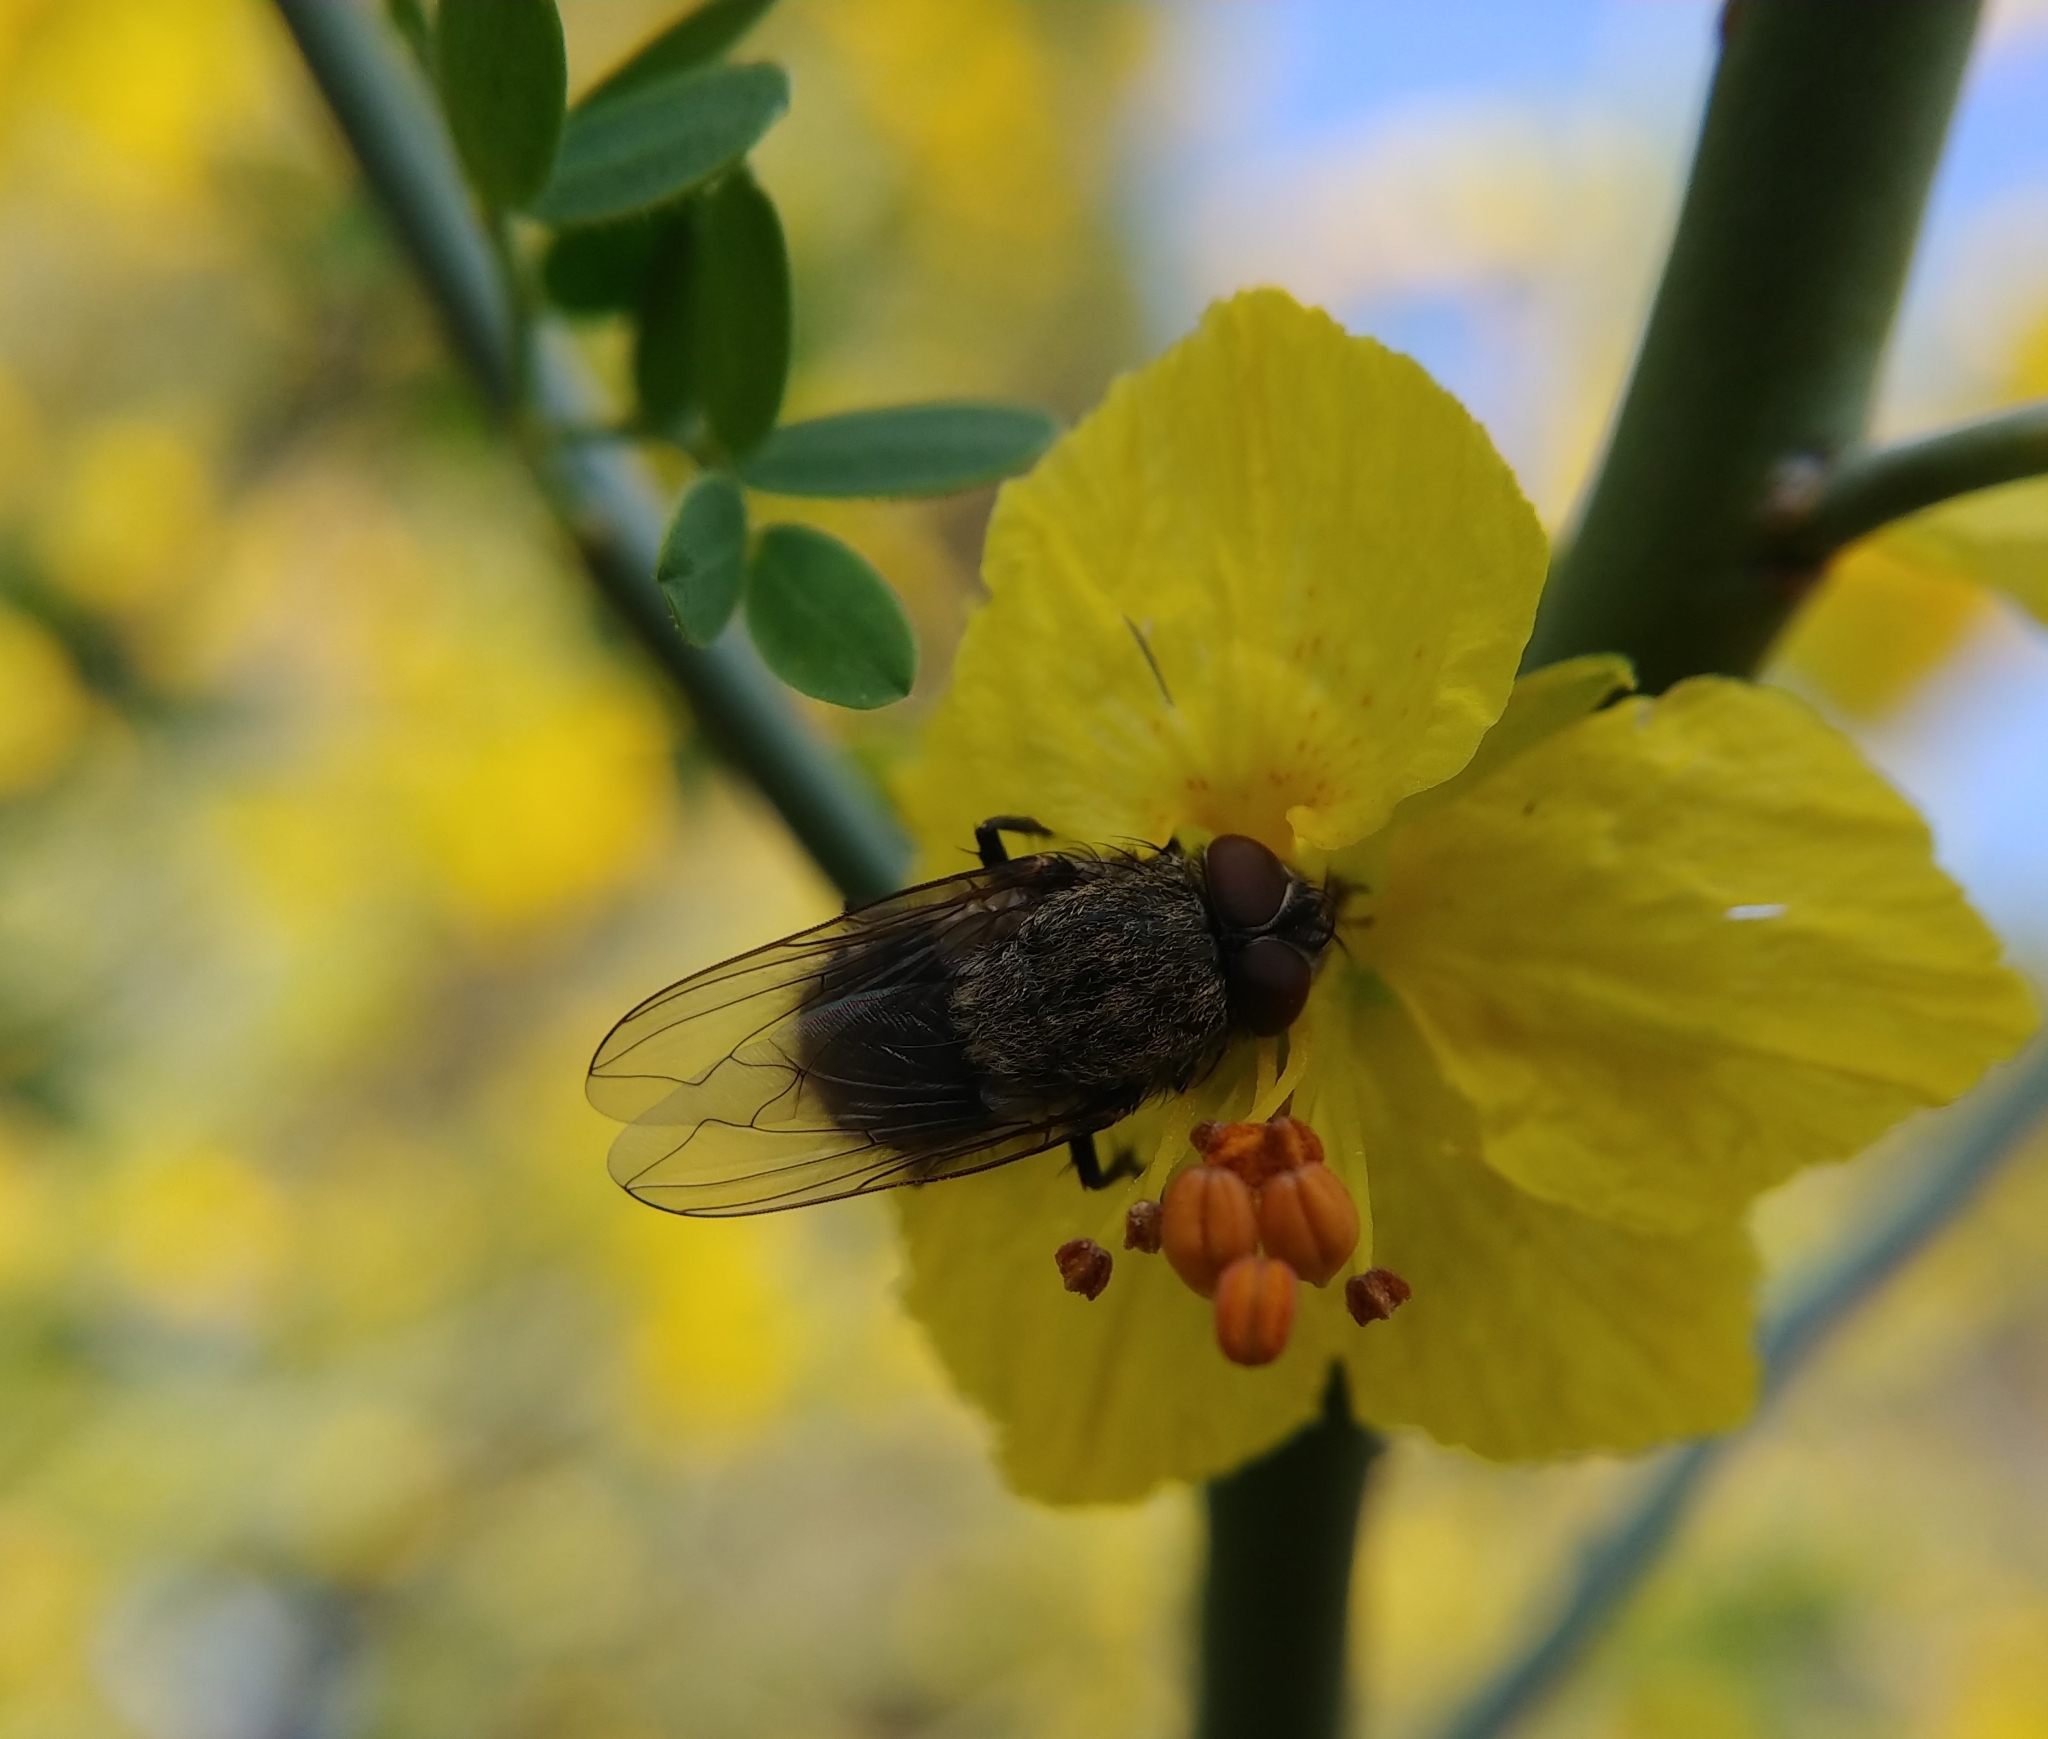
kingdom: Animalia
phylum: Arthropoda
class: Insecta
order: Diptera
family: Polleniidae
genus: Pollenia
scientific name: Pollenia
